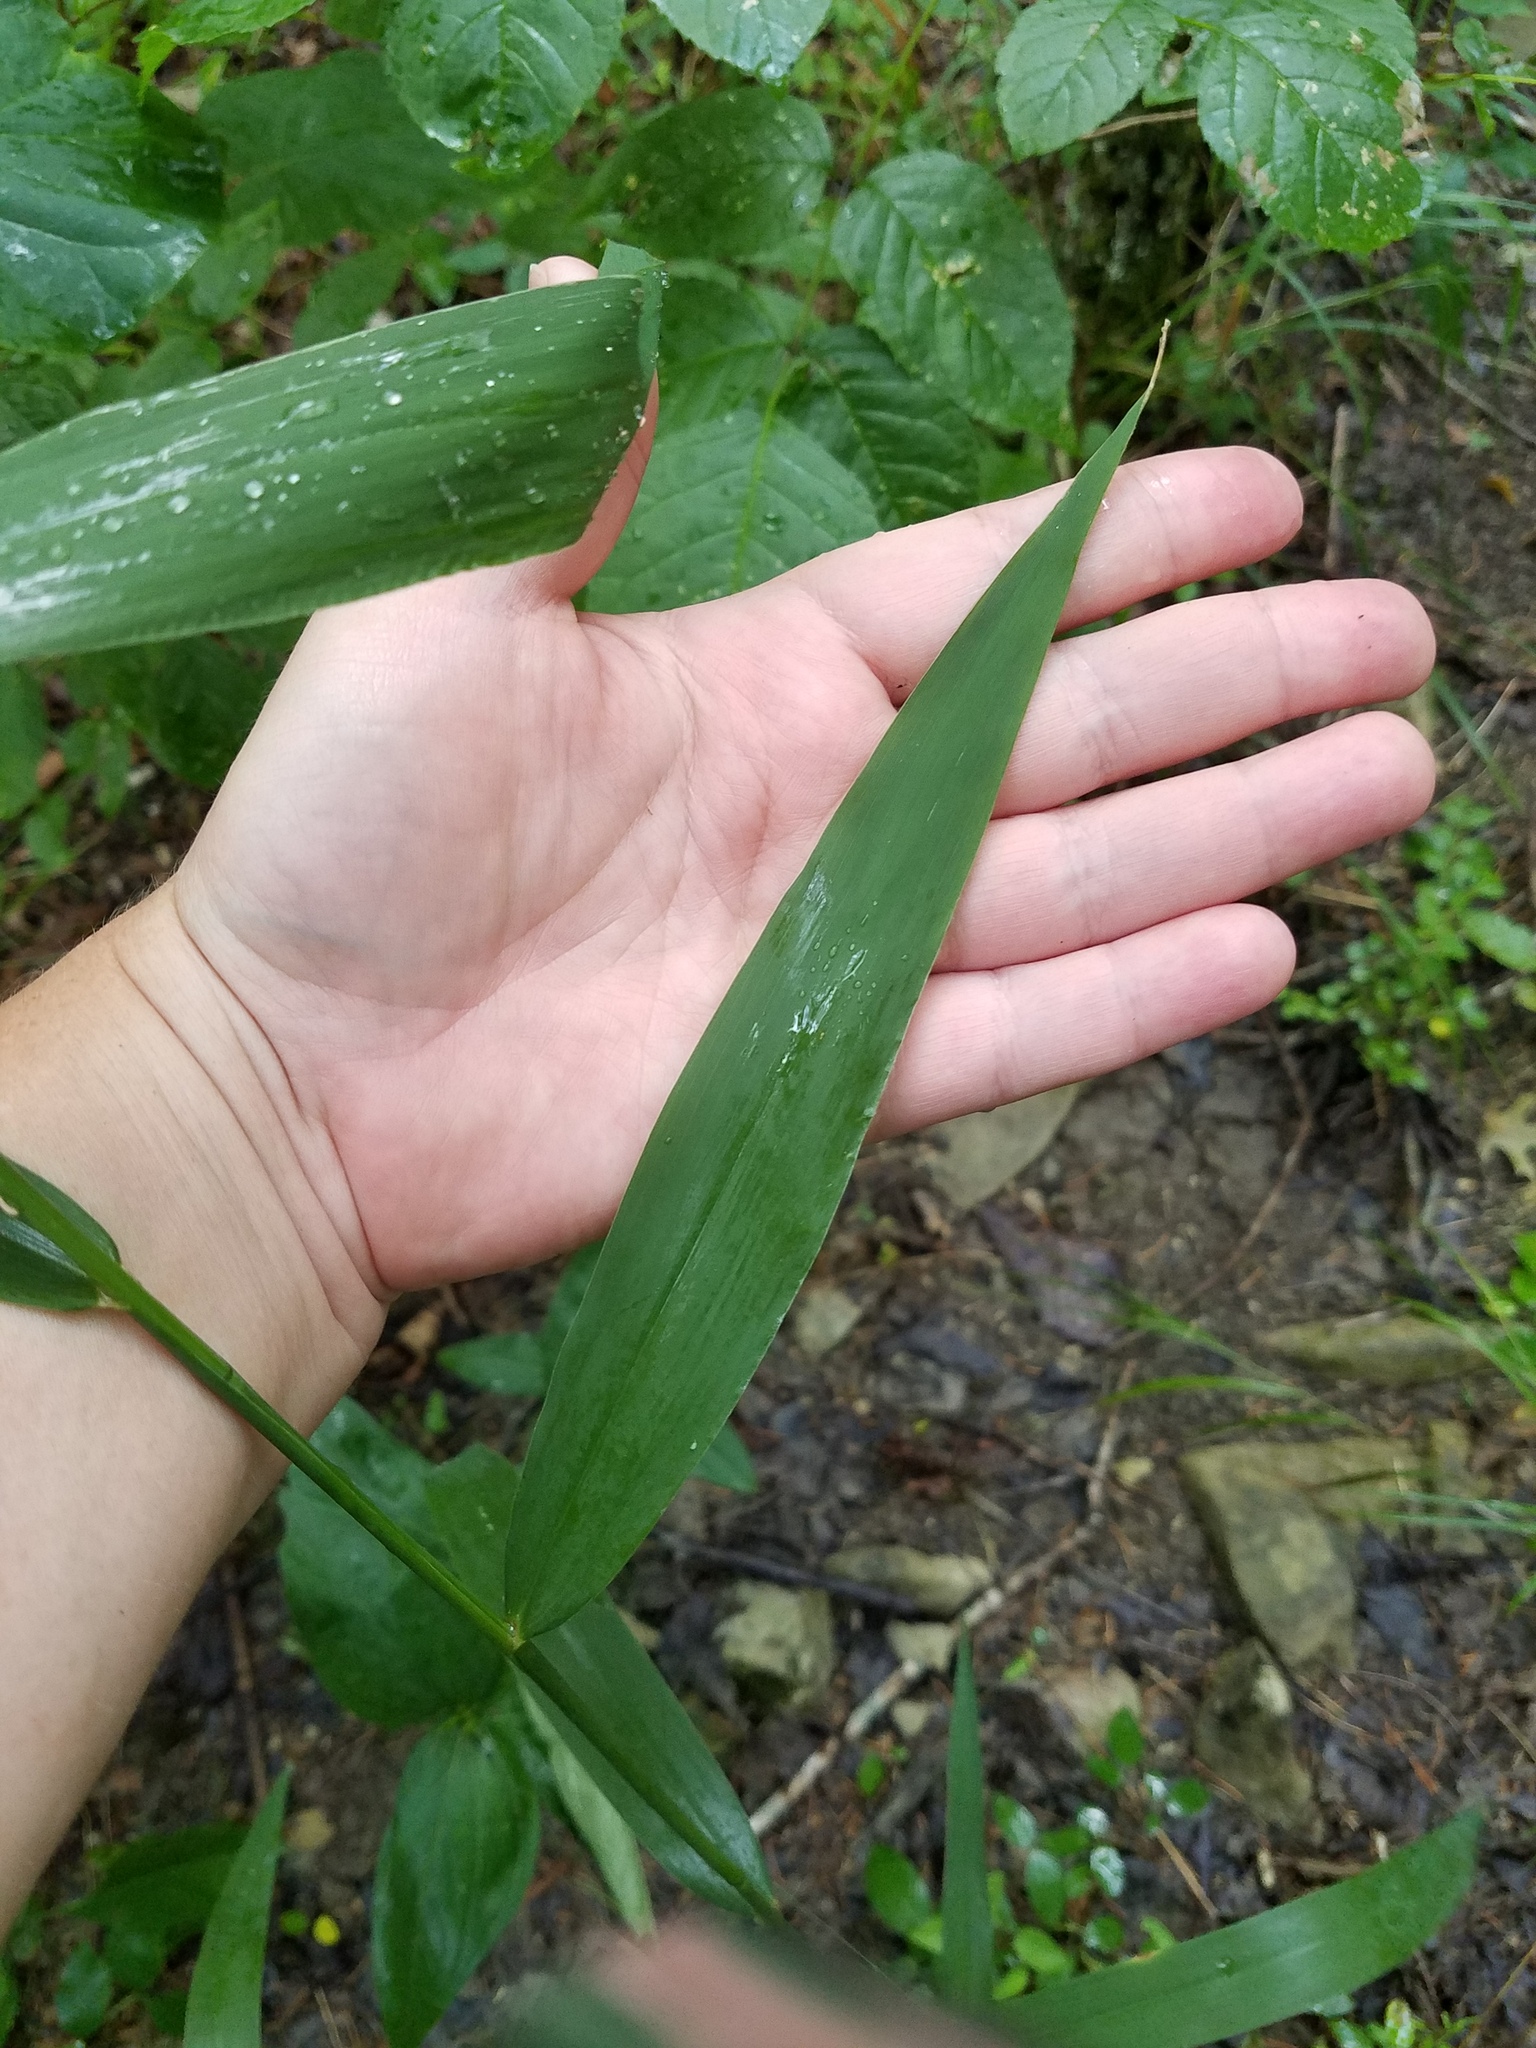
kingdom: Plantae
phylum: Tracheophyta
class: Liliopsida
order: Poales
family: Poaceae
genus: Chasmanthium
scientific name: Chasmanthium latifolium
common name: Broad-leaved chasmanthium
